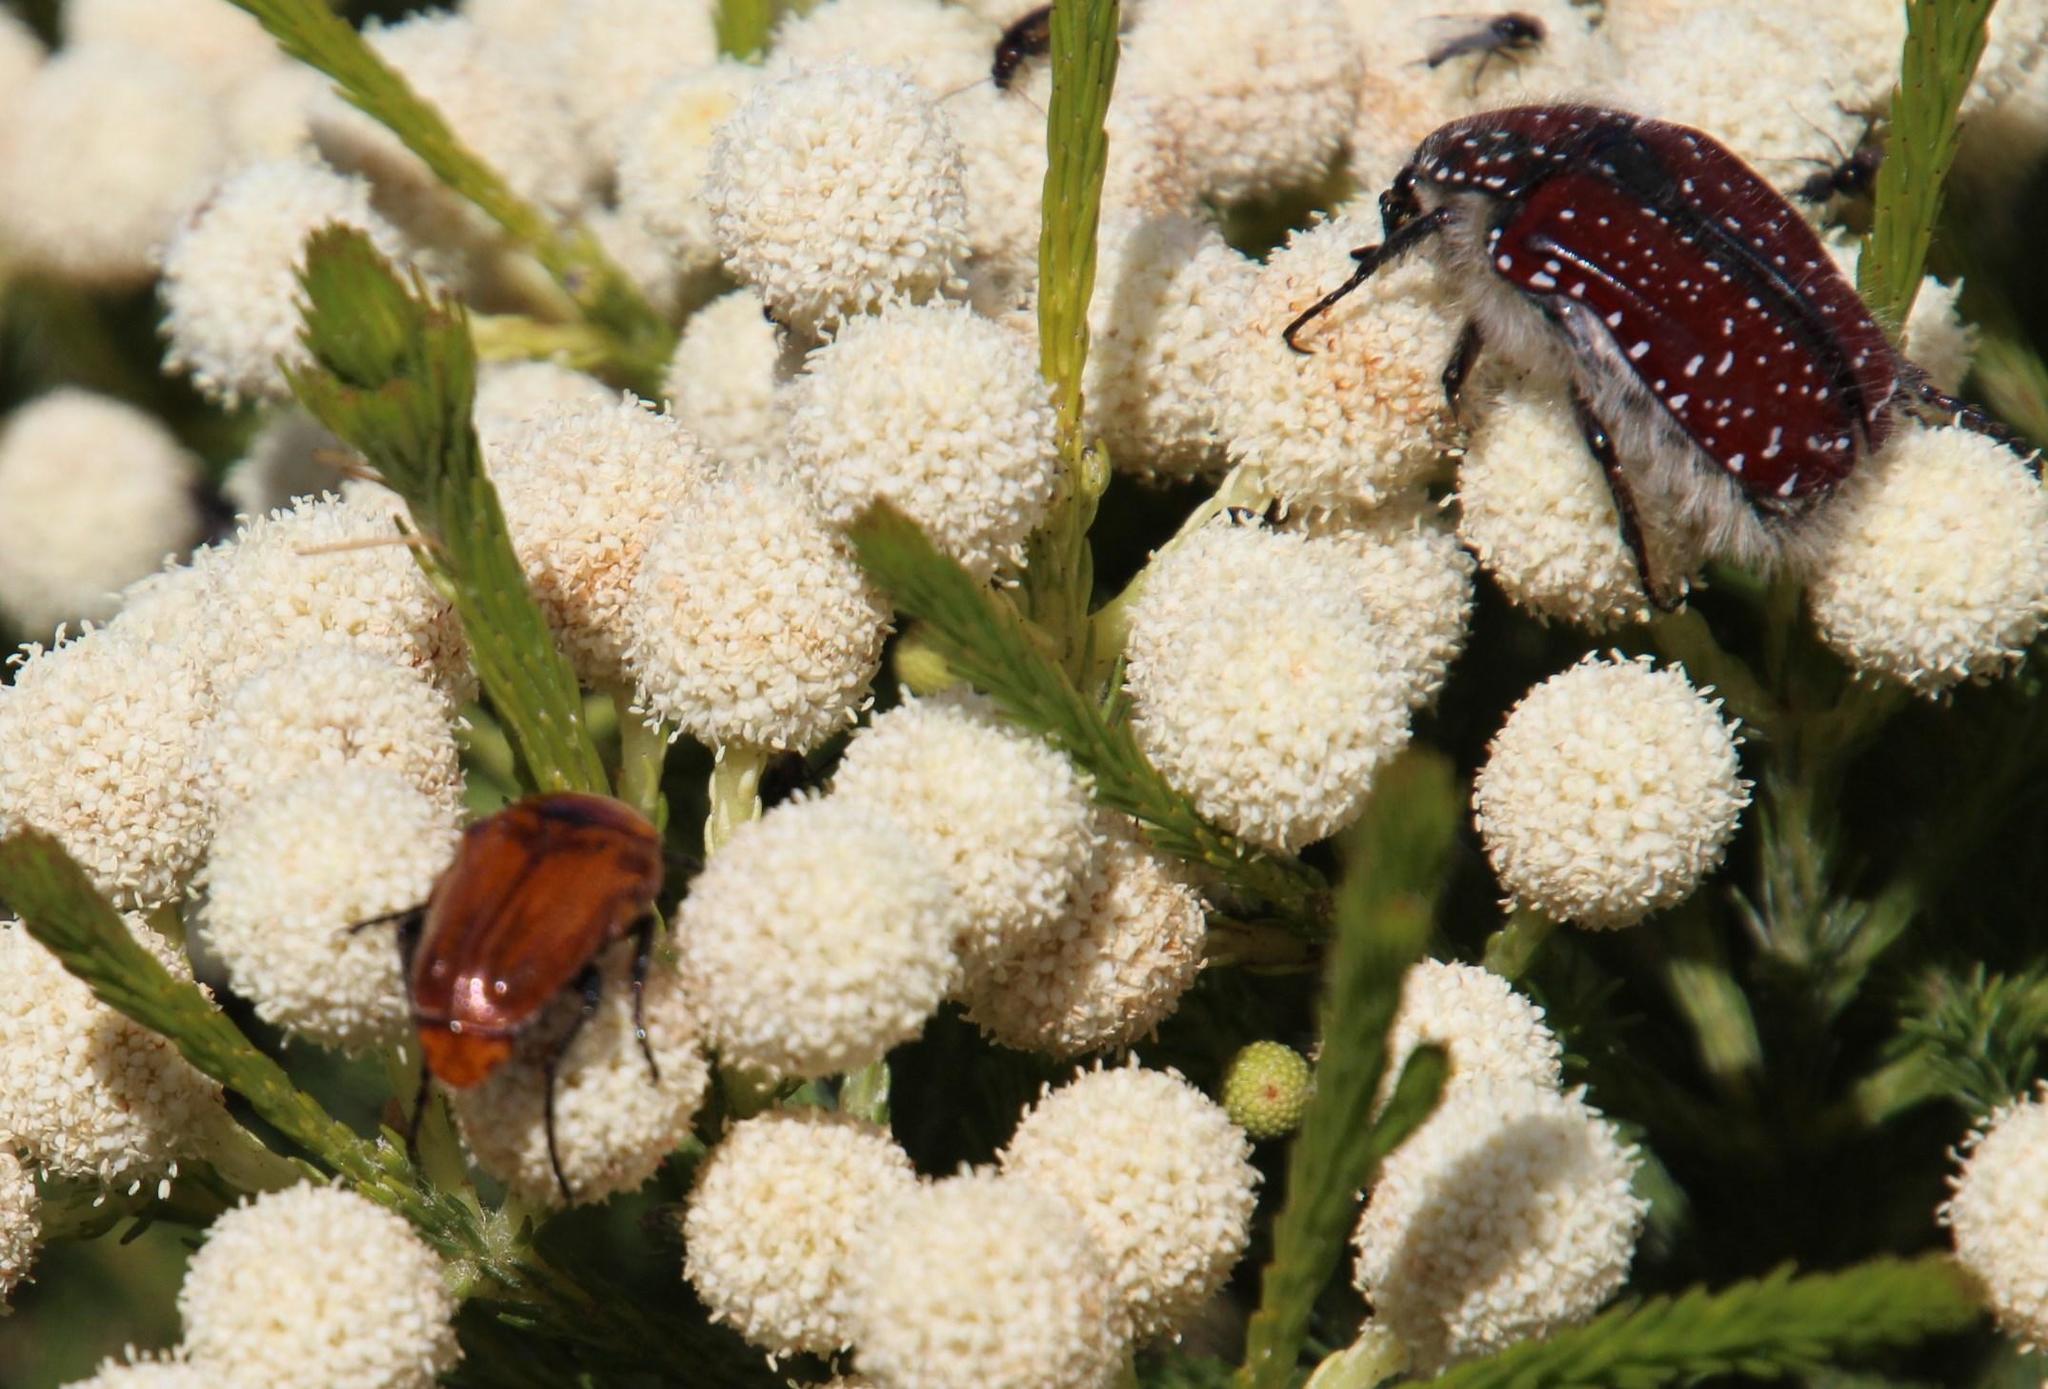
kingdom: Animalia
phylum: Arthropoda
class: Insecta
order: Coleoptera
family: Scarabaeidae
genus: Trichostetha
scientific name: Trichostetha capensis
